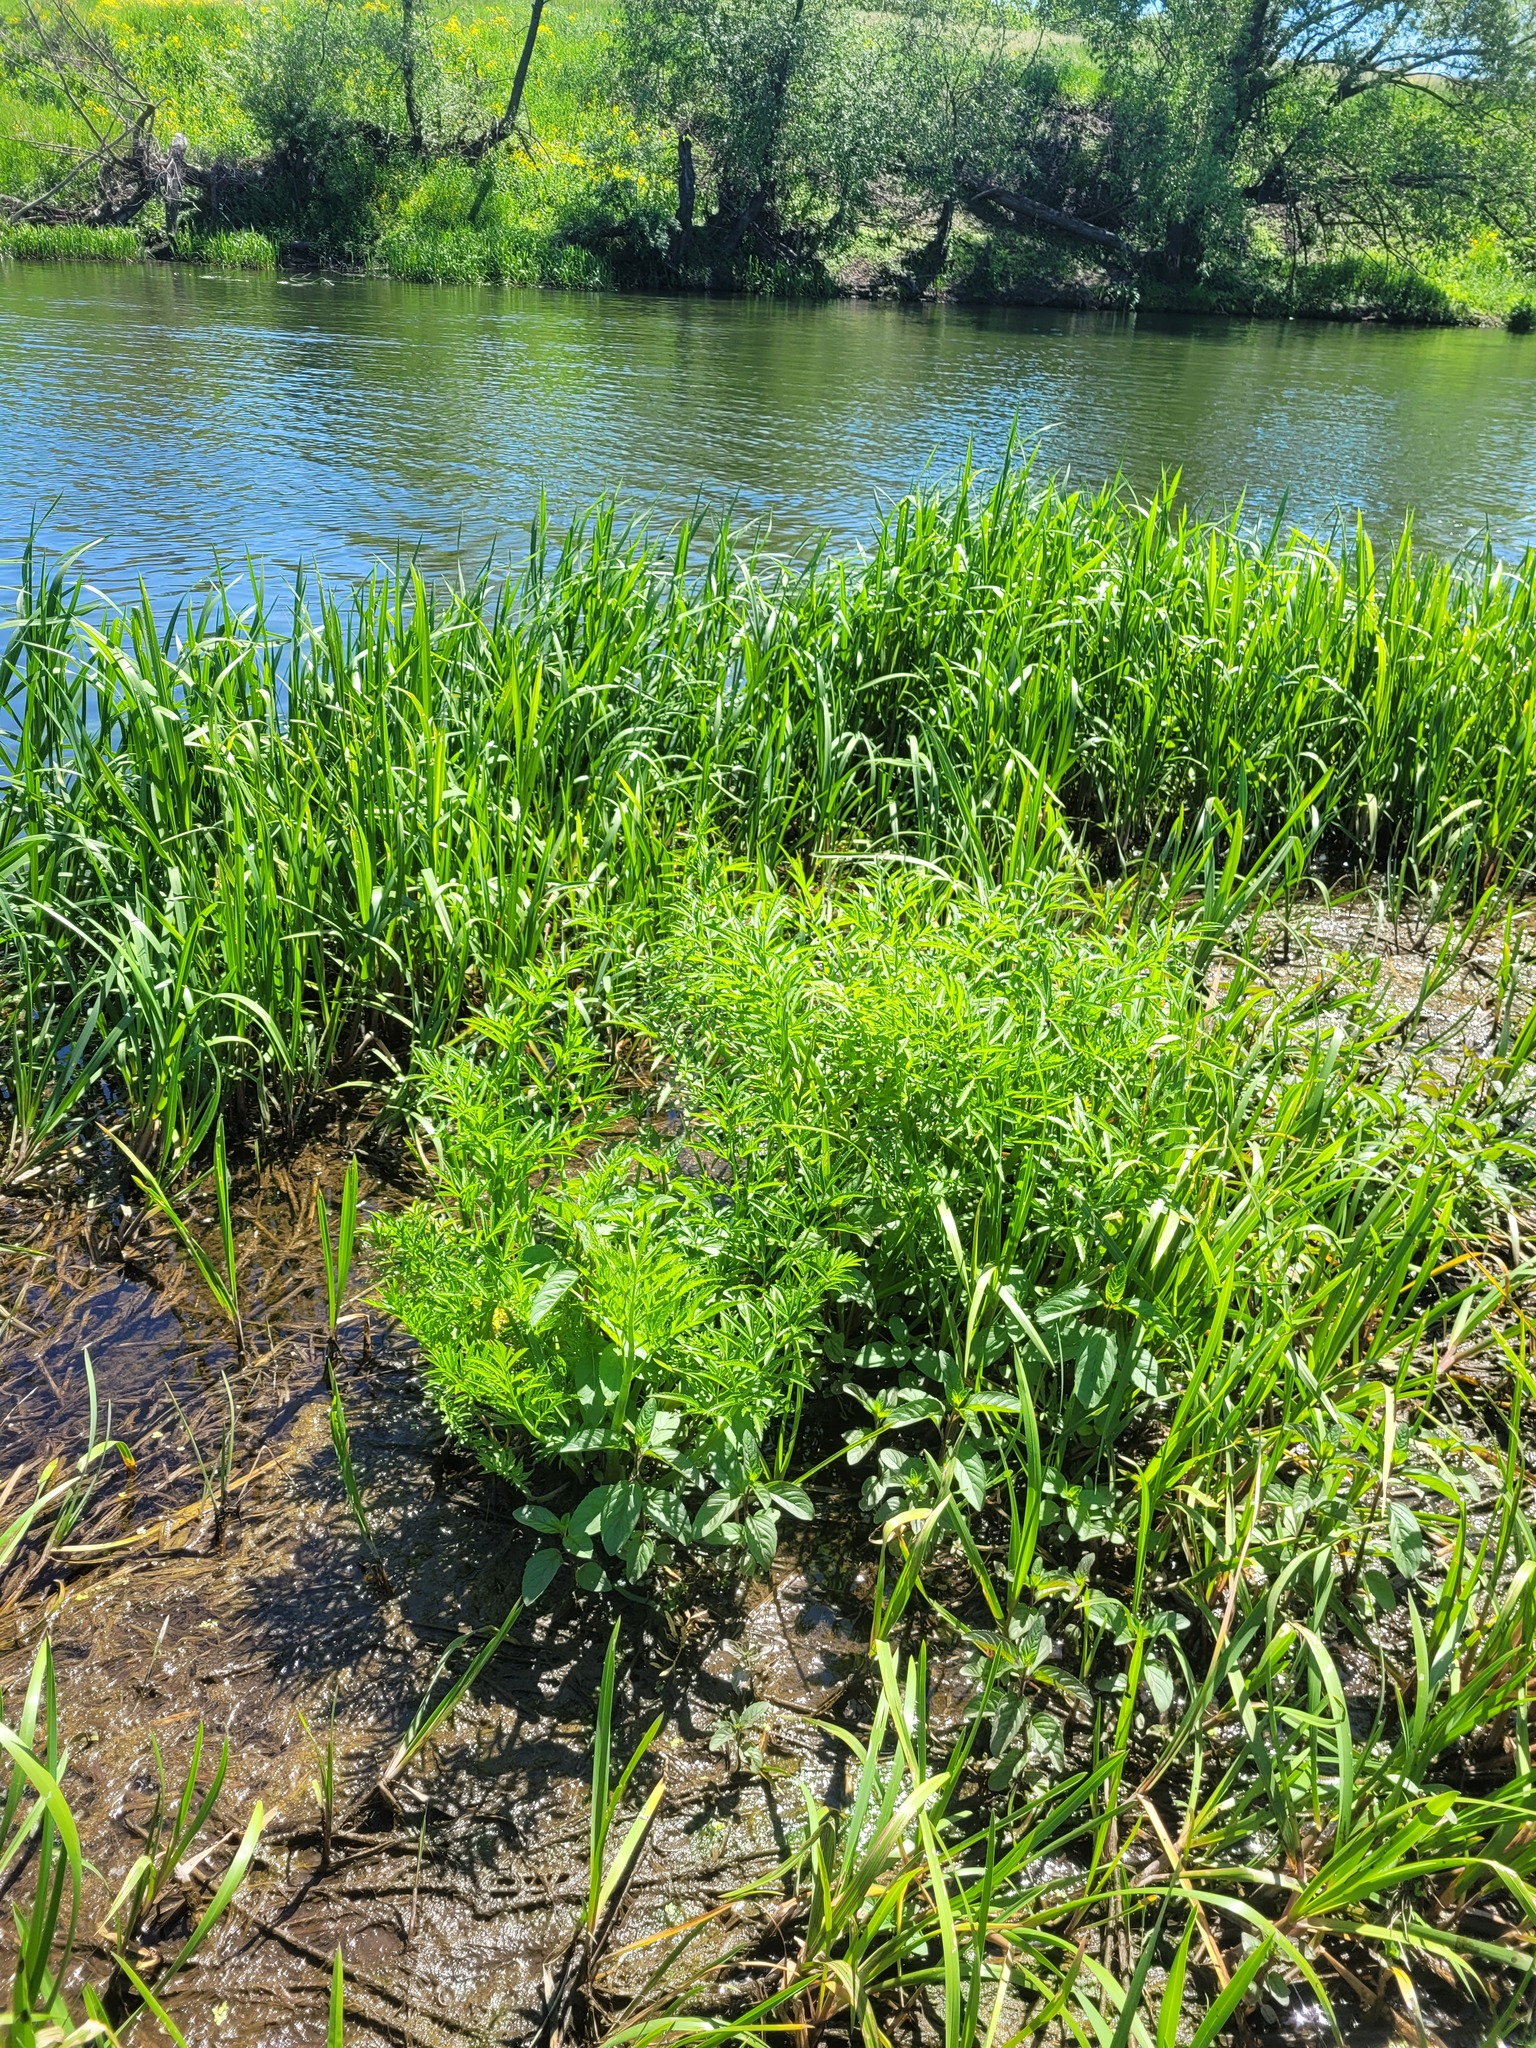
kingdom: Plantae
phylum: Tracheophyta
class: Magnoliopsida
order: Apiales
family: Apiaceae
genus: Cicuta
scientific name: Cicuta virosa
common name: Cowbane
